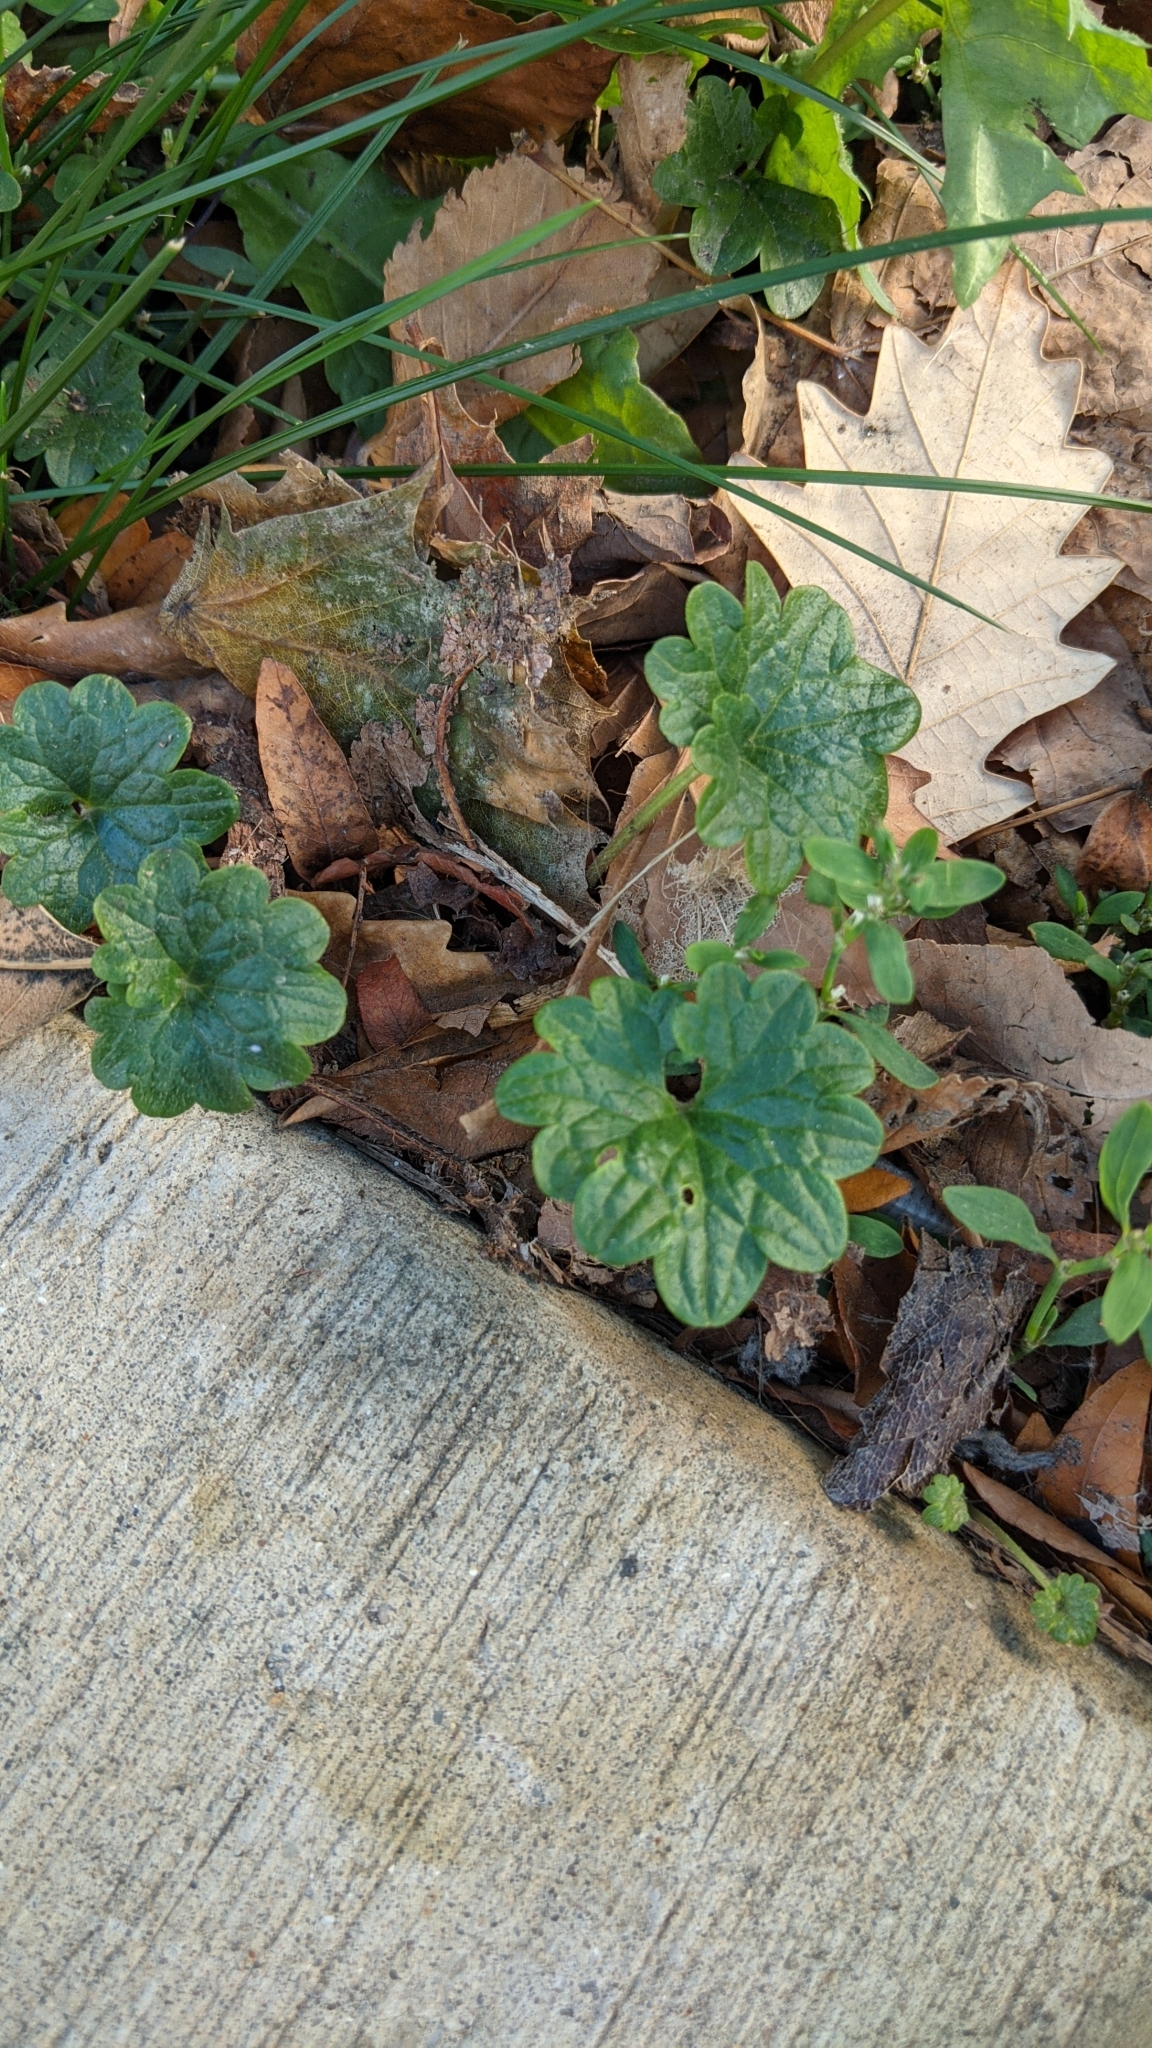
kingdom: Plantae
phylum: Tracheophyta
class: Magnoliopsida
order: Lamiales
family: Lamiaceae
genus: Glechoma
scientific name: Glechoma hederacea
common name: Ground ivy
